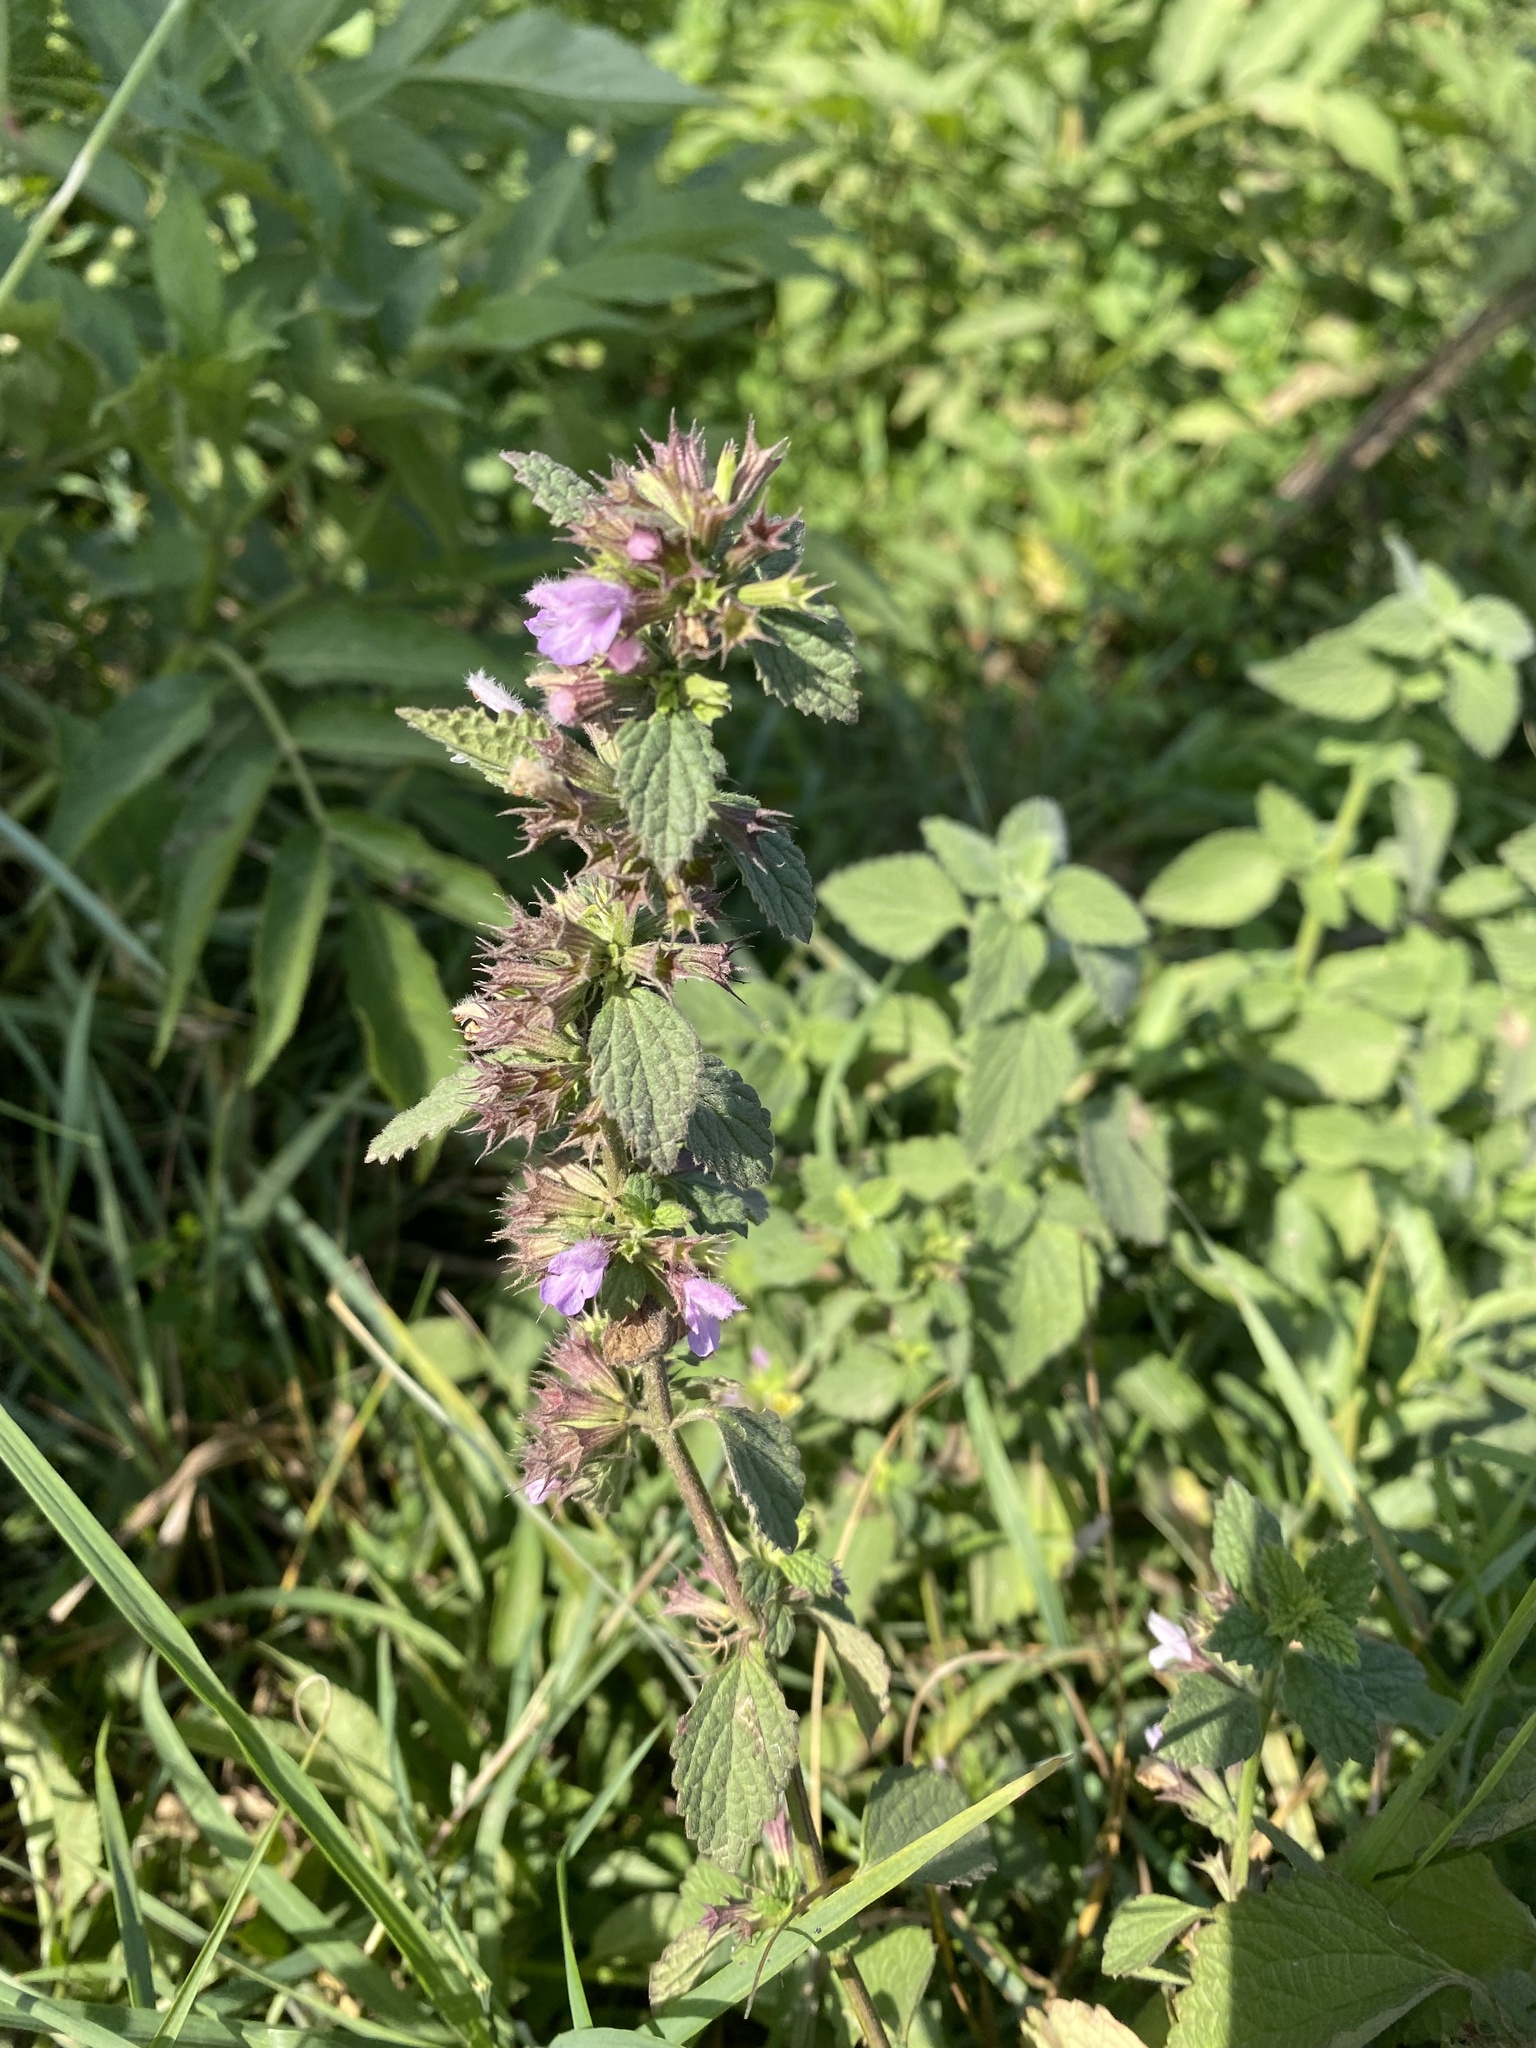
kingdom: Plantae
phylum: Tracheophyta
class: Magnoliopsida
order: Lamiales
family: Lamiaceae
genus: Ballota
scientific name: Ballota nigra
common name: Black horehound
